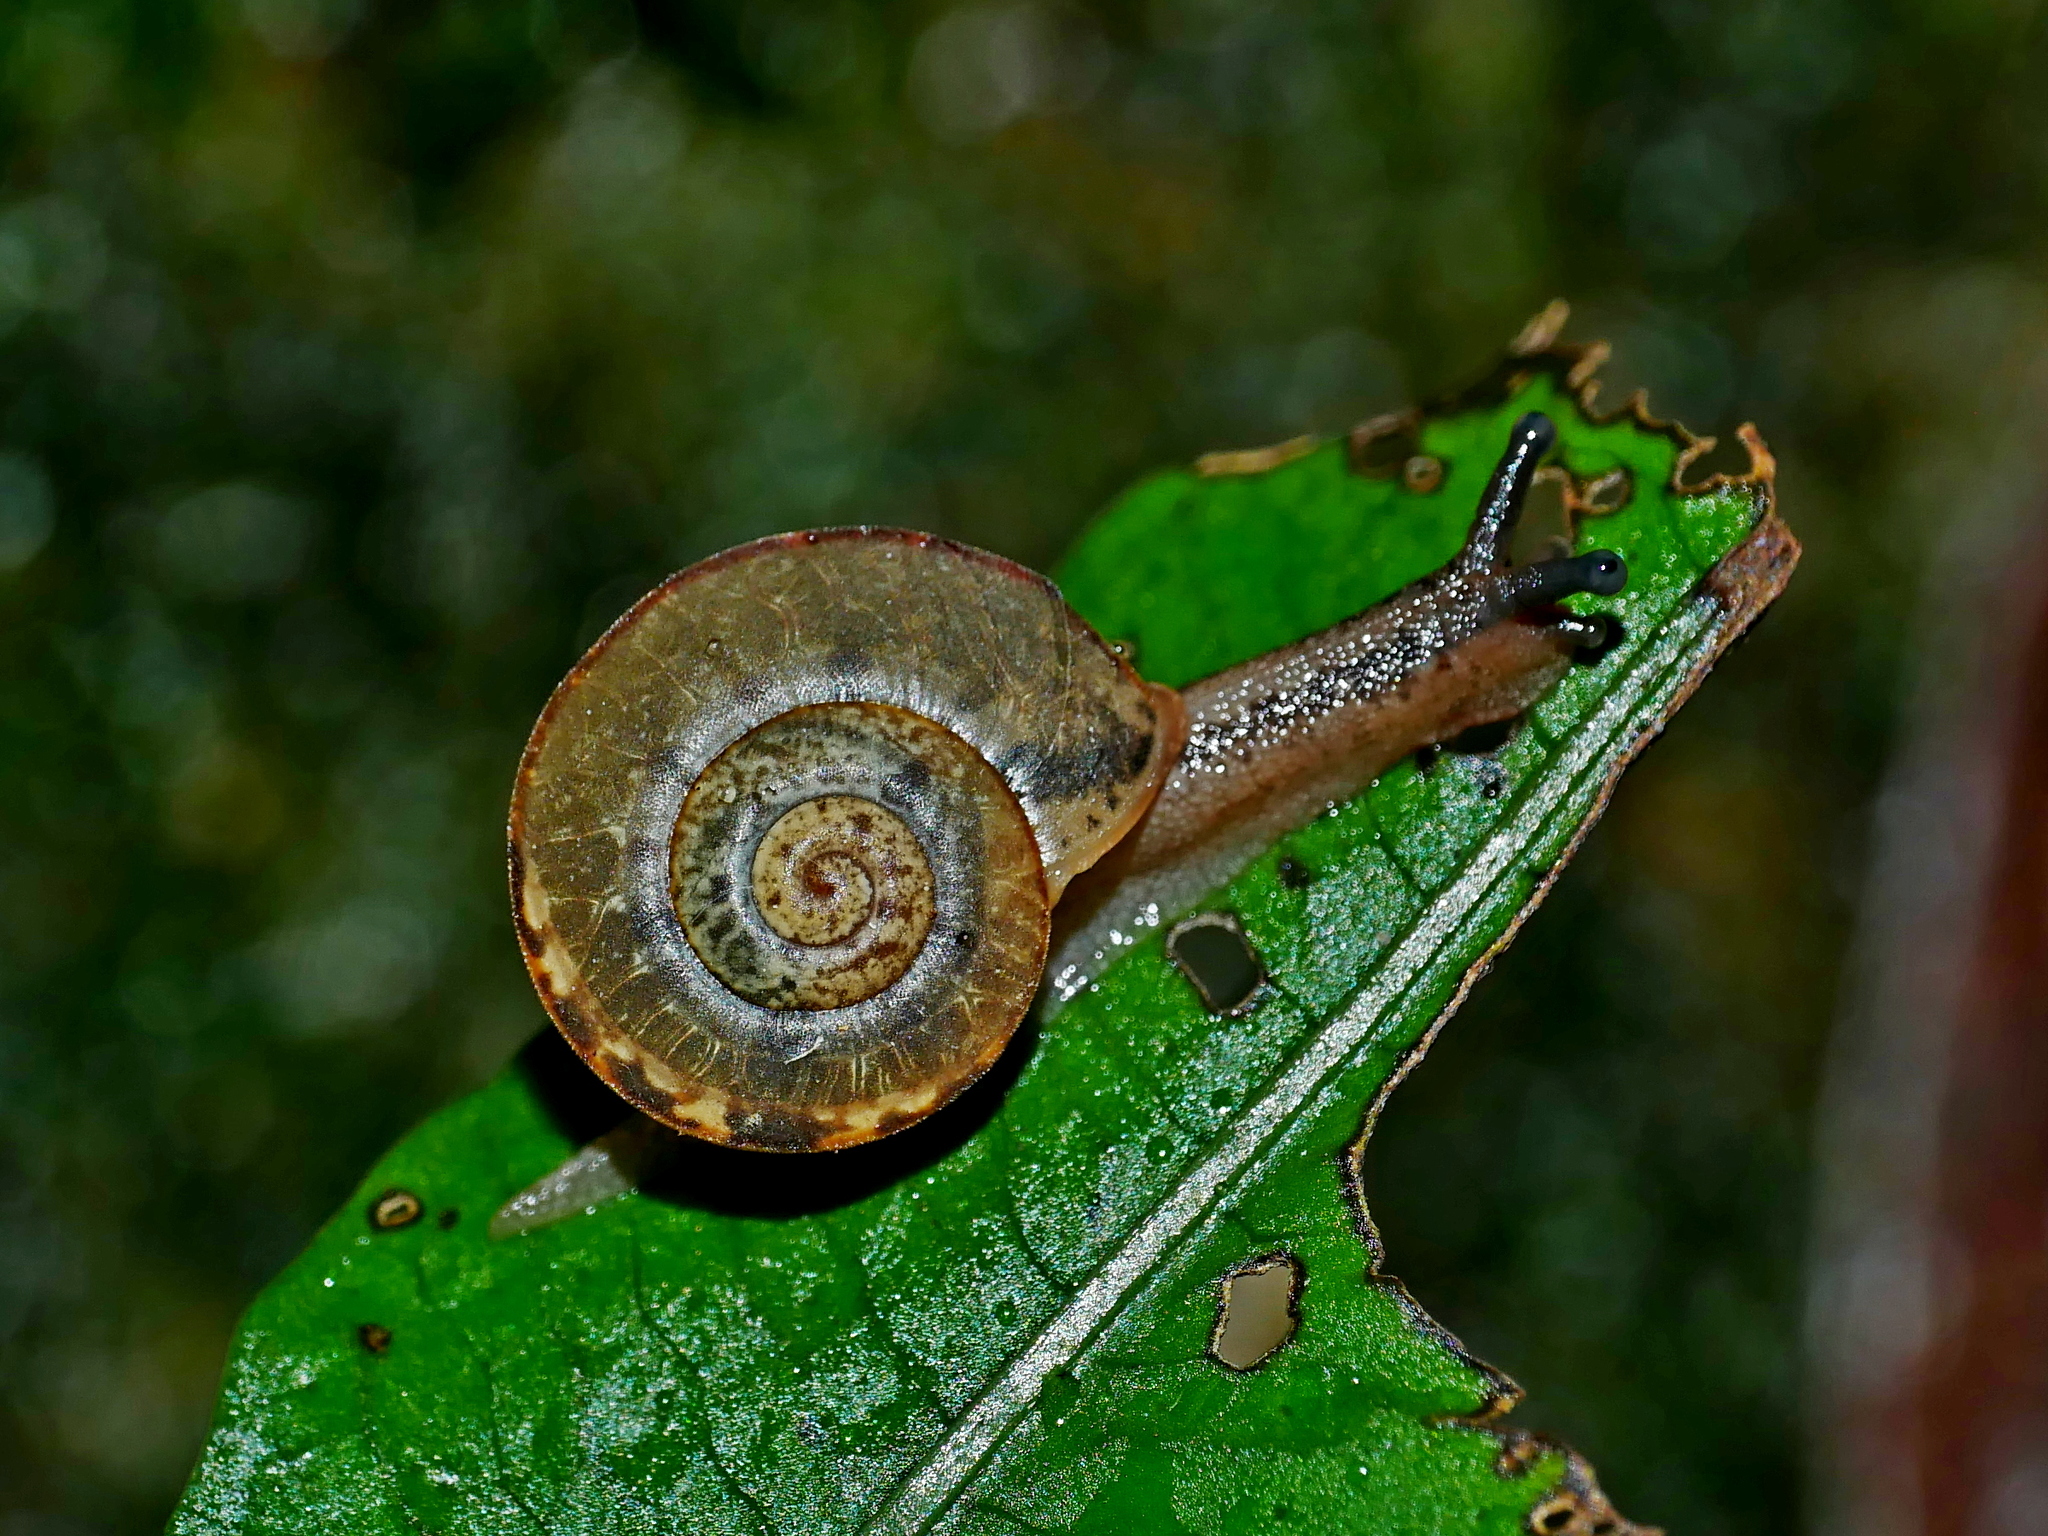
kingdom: Animalia
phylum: Mollusca
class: Gastropoda
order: Stylommatophora
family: Camaenidae
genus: Satsuma
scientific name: Satsuma mellea
